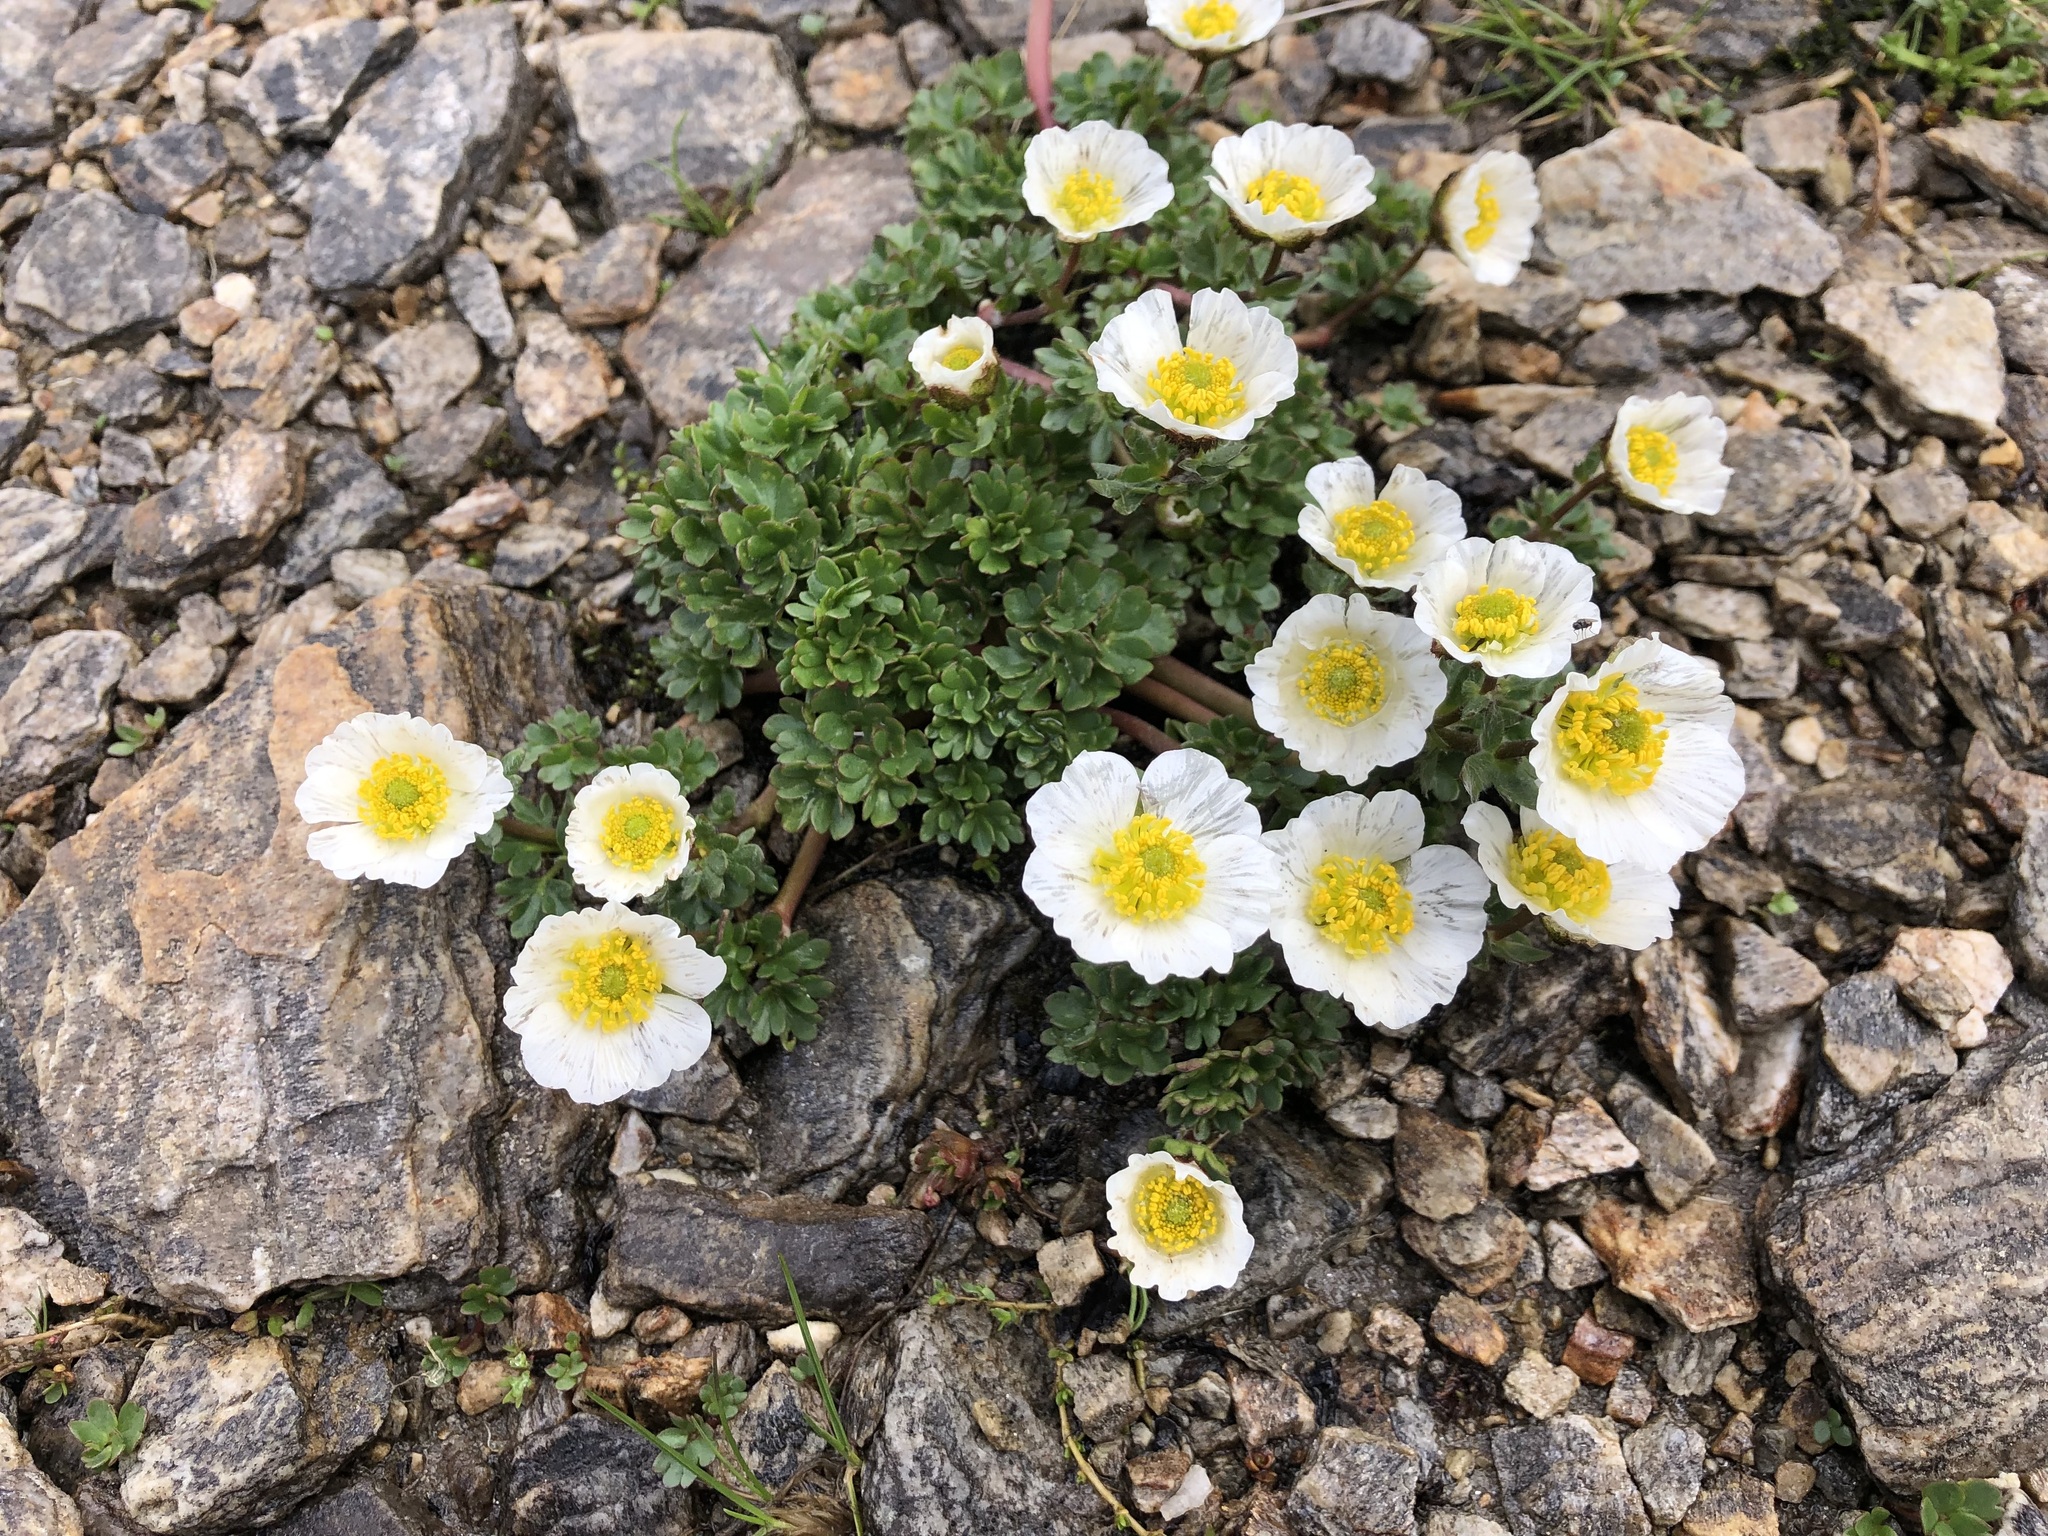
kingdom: Plantae
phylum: Tracheophyta
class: Magnoliopsida
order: Ranunculales
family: Ranunculaceae
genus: Ranunculus
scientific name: Ranunculus glacialis
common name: Glacier buttercup
